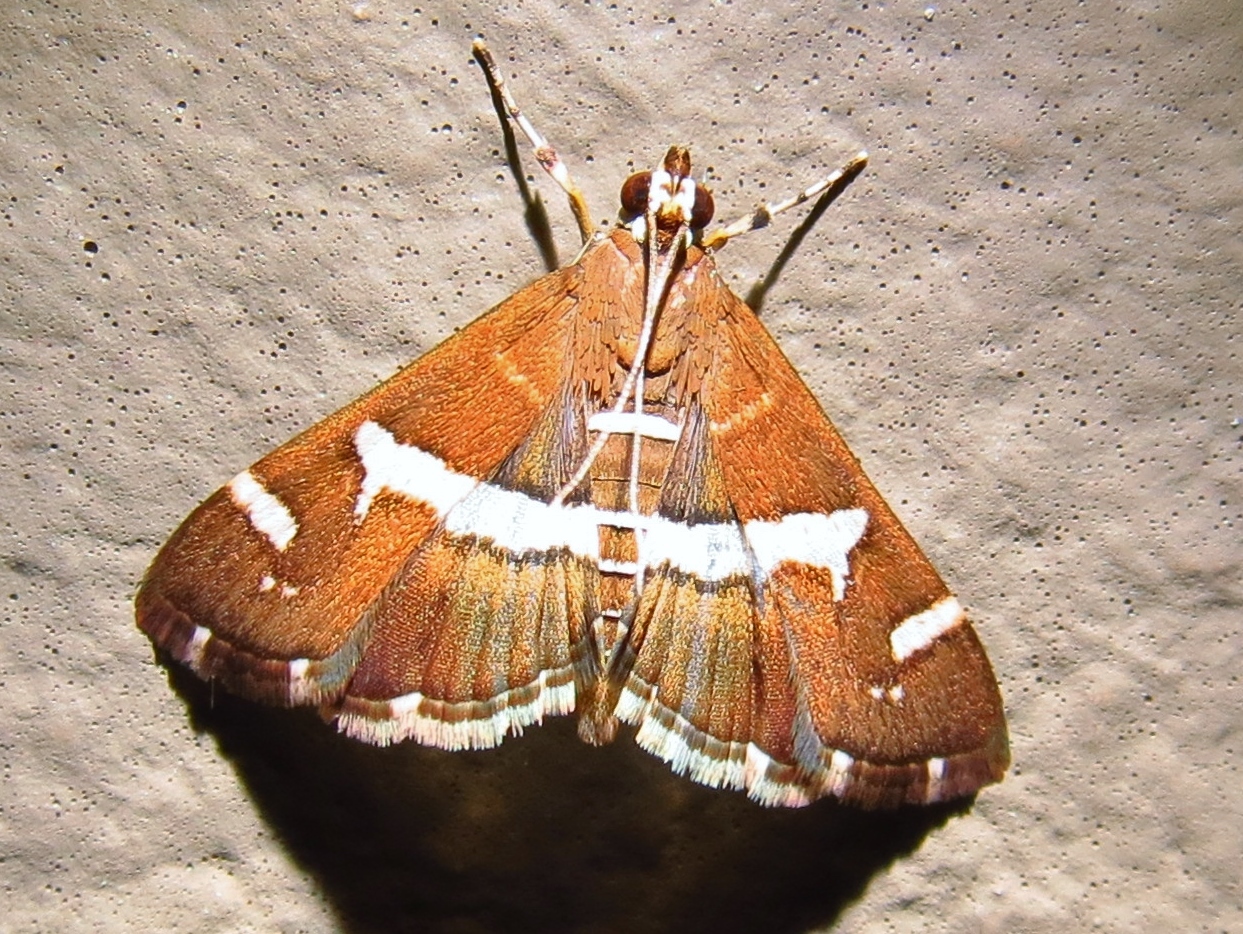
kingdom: Animalia
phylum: Arthropoda
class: Insecta
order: Lepidoptera
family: Crambidae
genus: Spoladea
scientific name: Spoladea recurvalis
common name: Beet webworm moth
